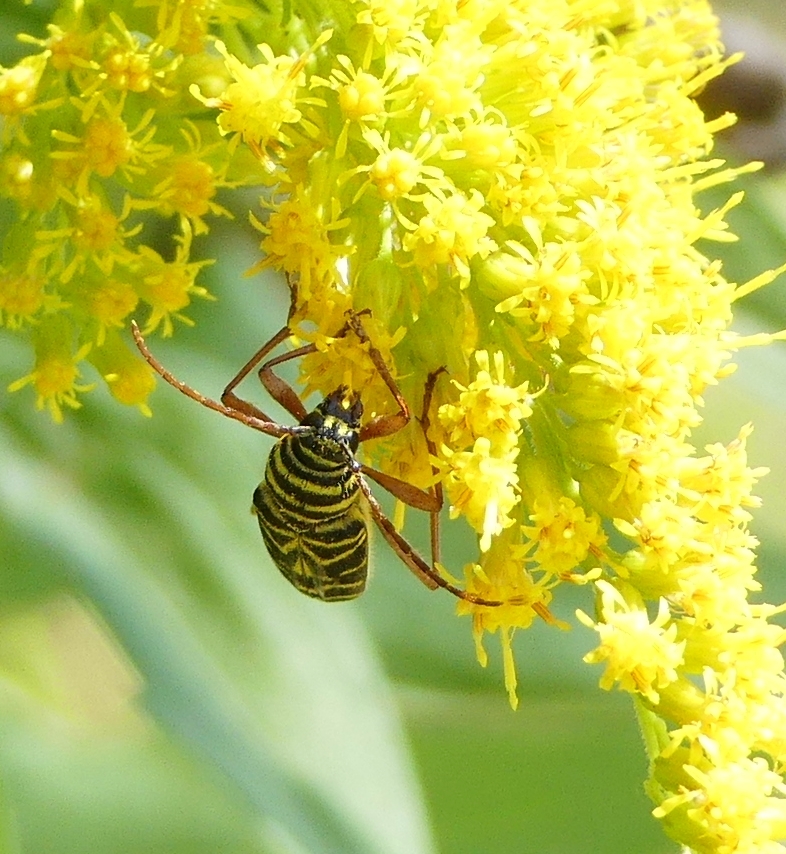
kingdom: Animalia
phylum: Arthropoda
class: Insecta
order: Coleoptera
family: Cerambycidae
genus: Megacyllene
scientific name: Megacyllene robiniae
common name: Locust borer
